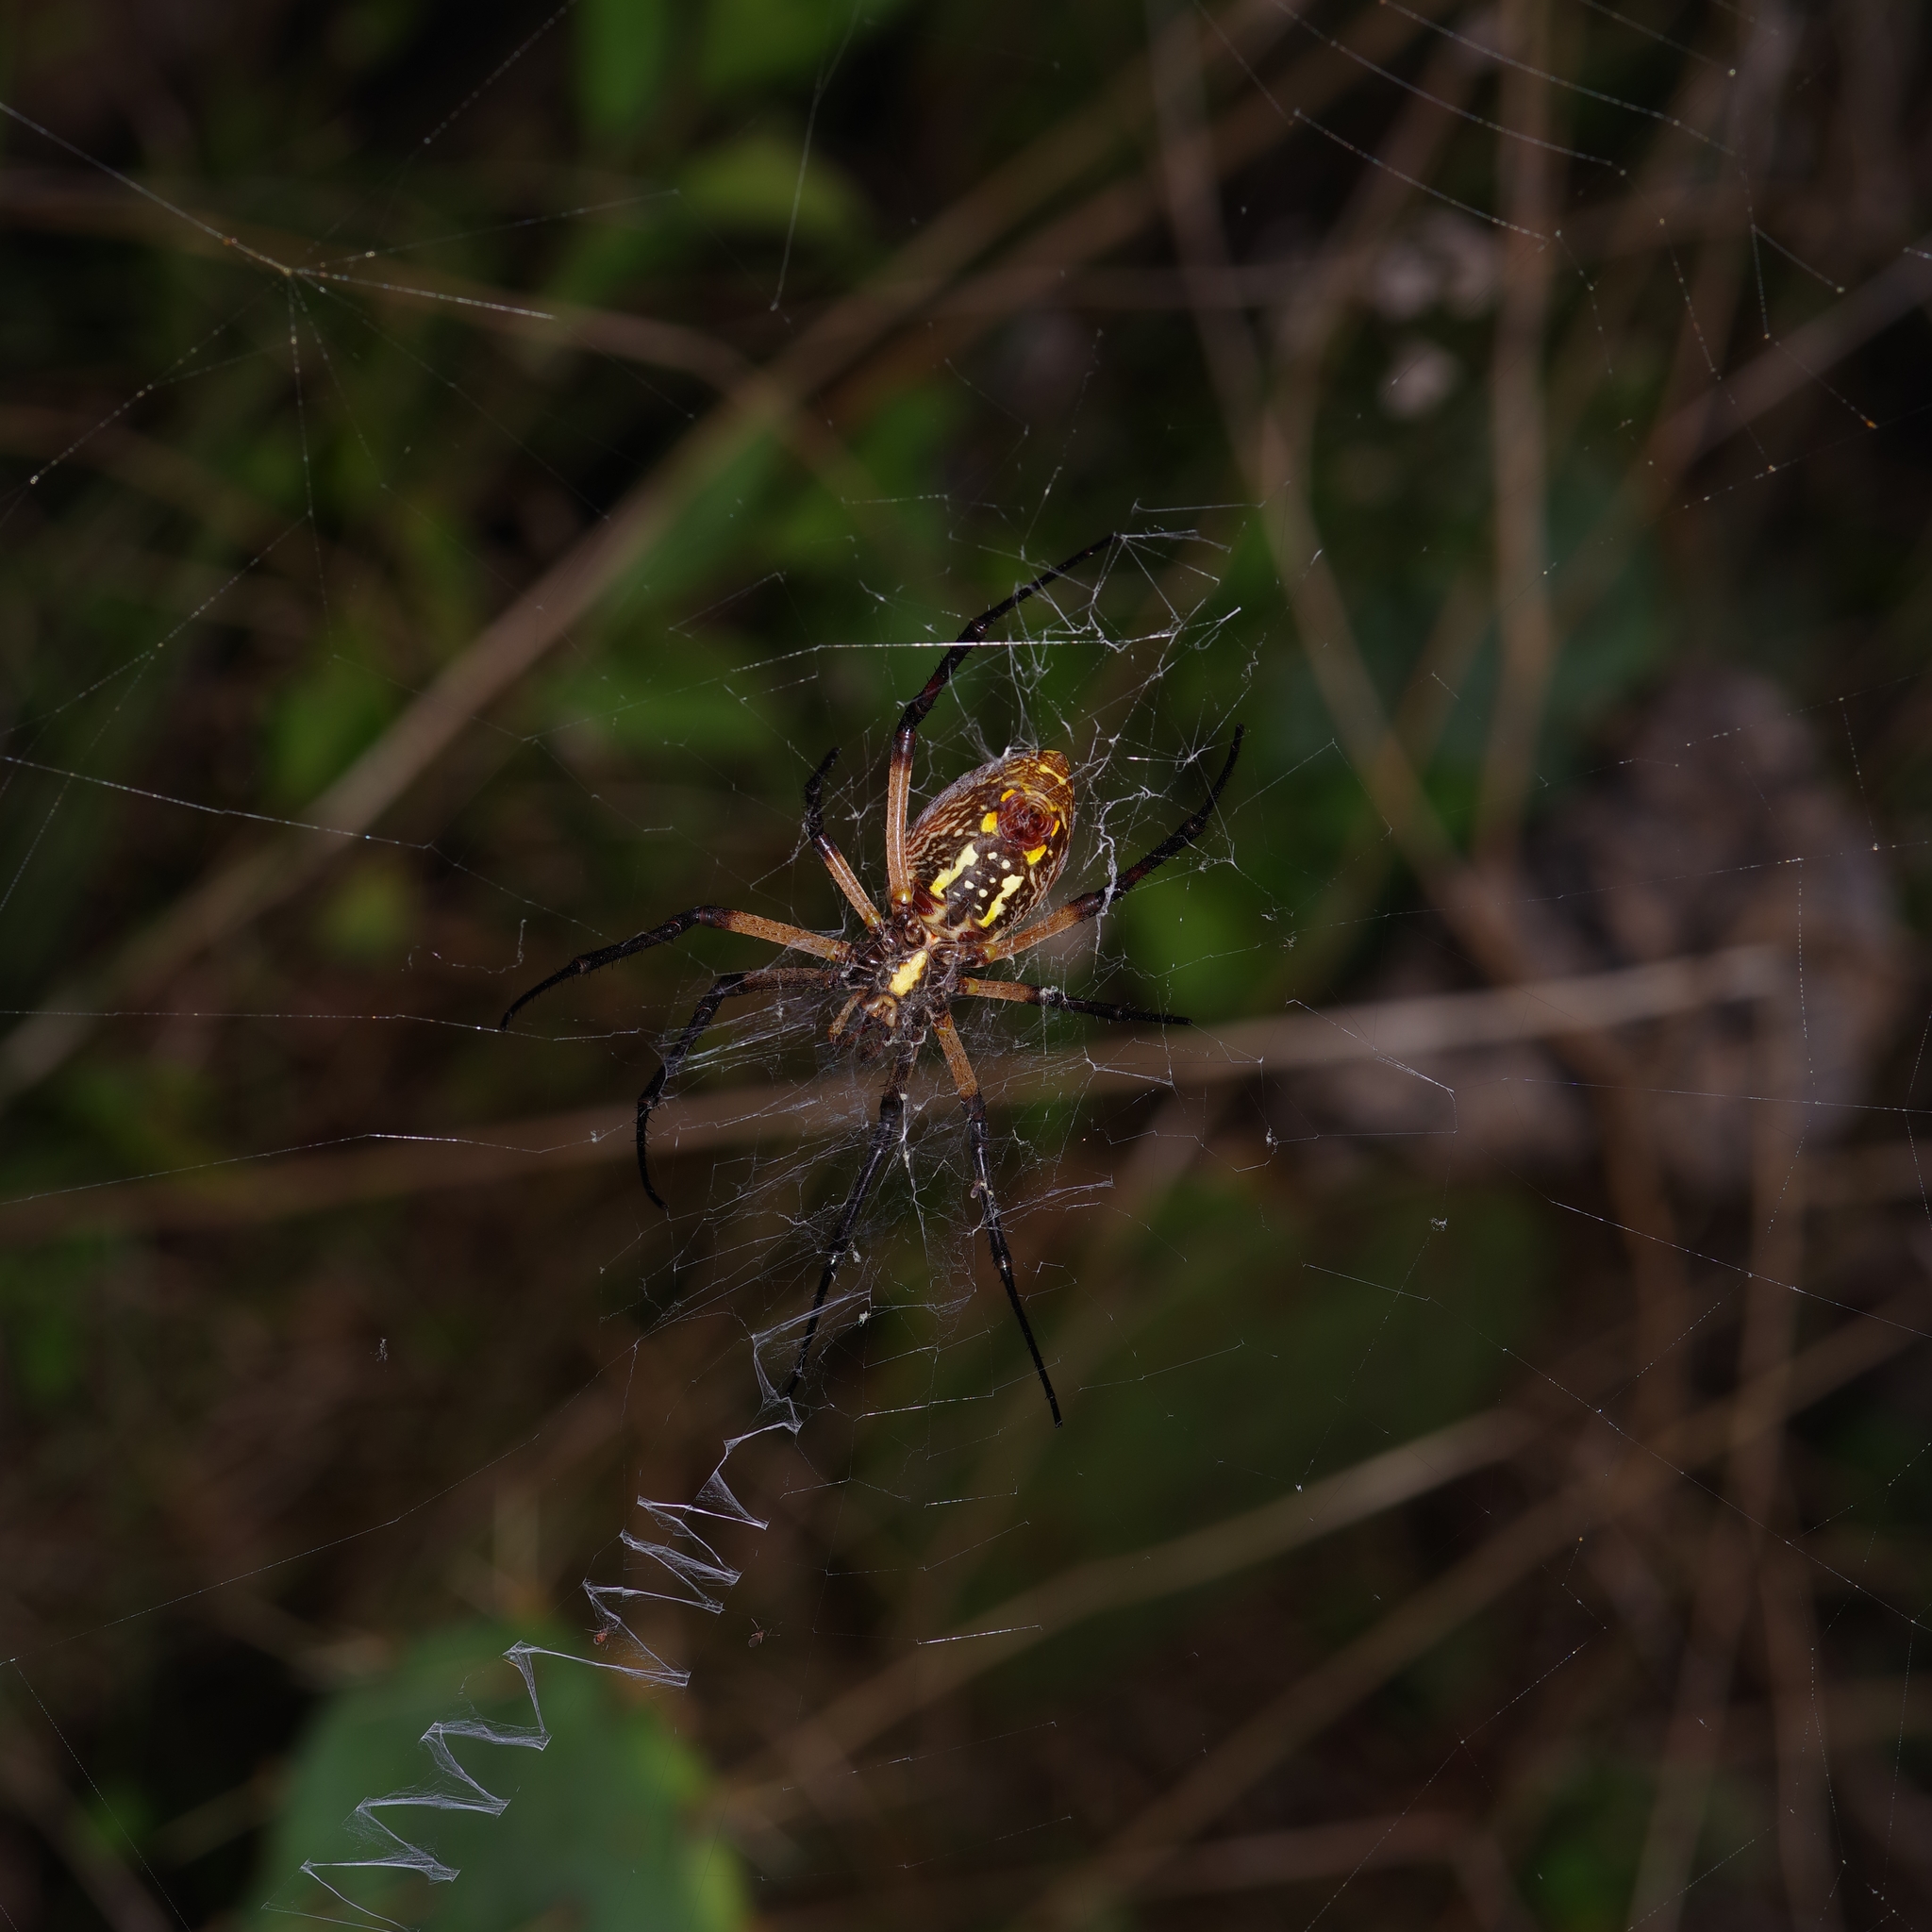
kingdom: Animalia
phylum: Arthropoda
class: Arachnida
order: Araneae
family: Araneidae
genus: Argiope
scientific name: Argiope aurantia
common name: Orb weavers
